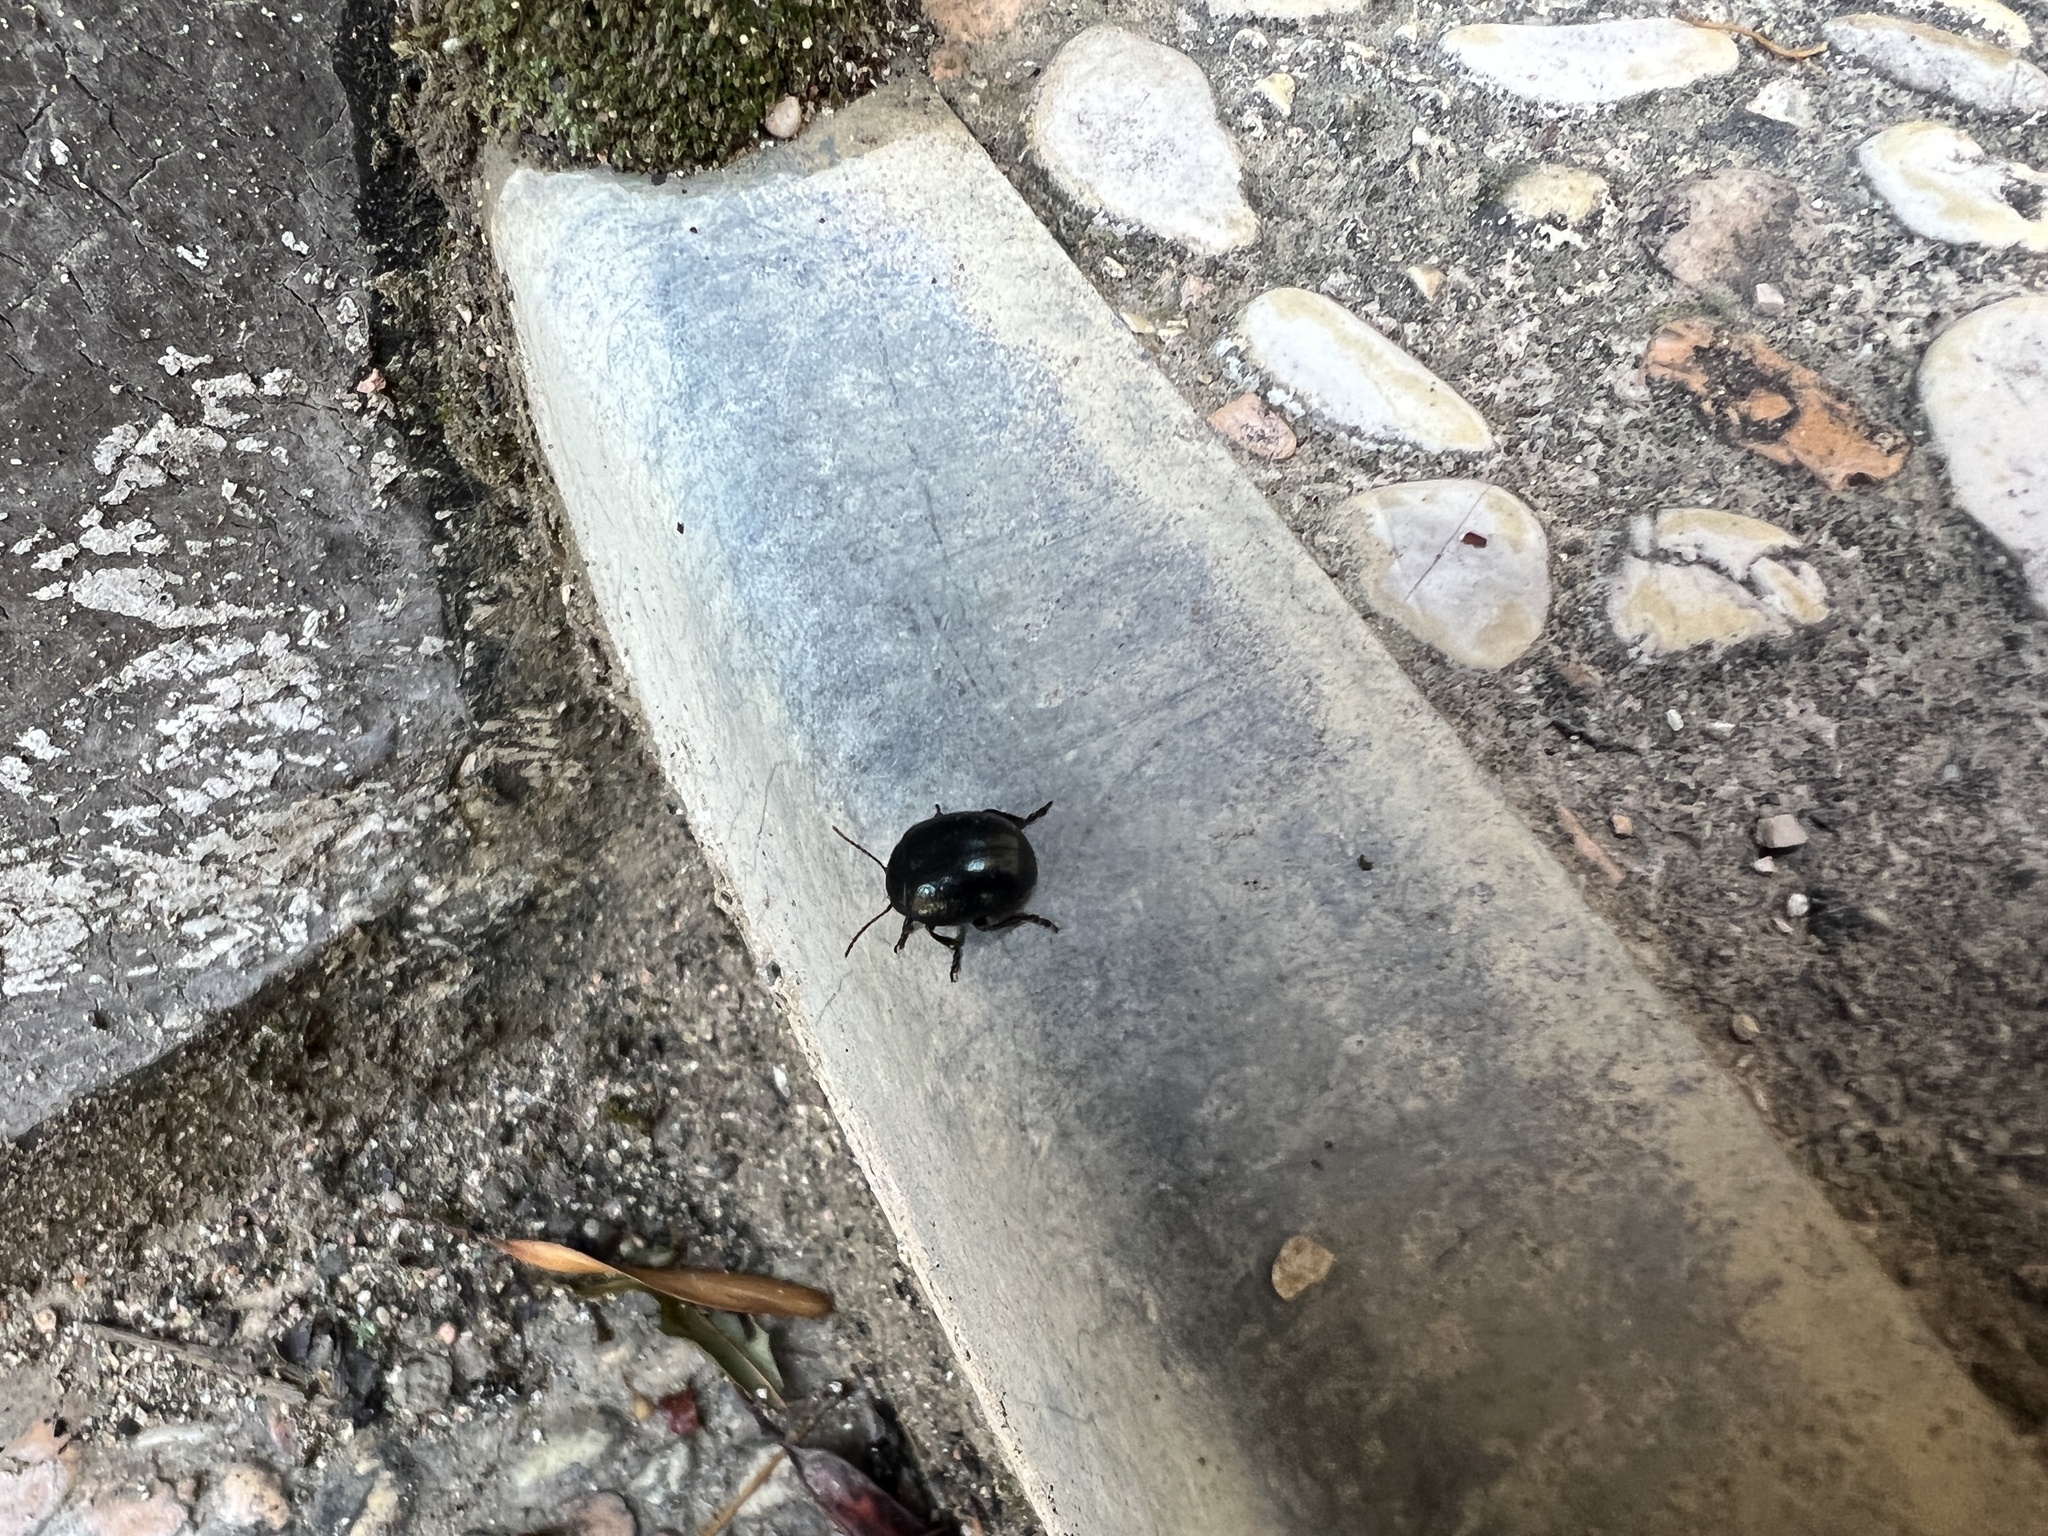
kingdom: Animalia
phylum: Arthropoda
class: Insecta
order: Coleoptera
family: Chrysomelidae
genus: Chrysolina
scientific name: Chrysolina haemoptera
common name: Plantain leaf beetle
